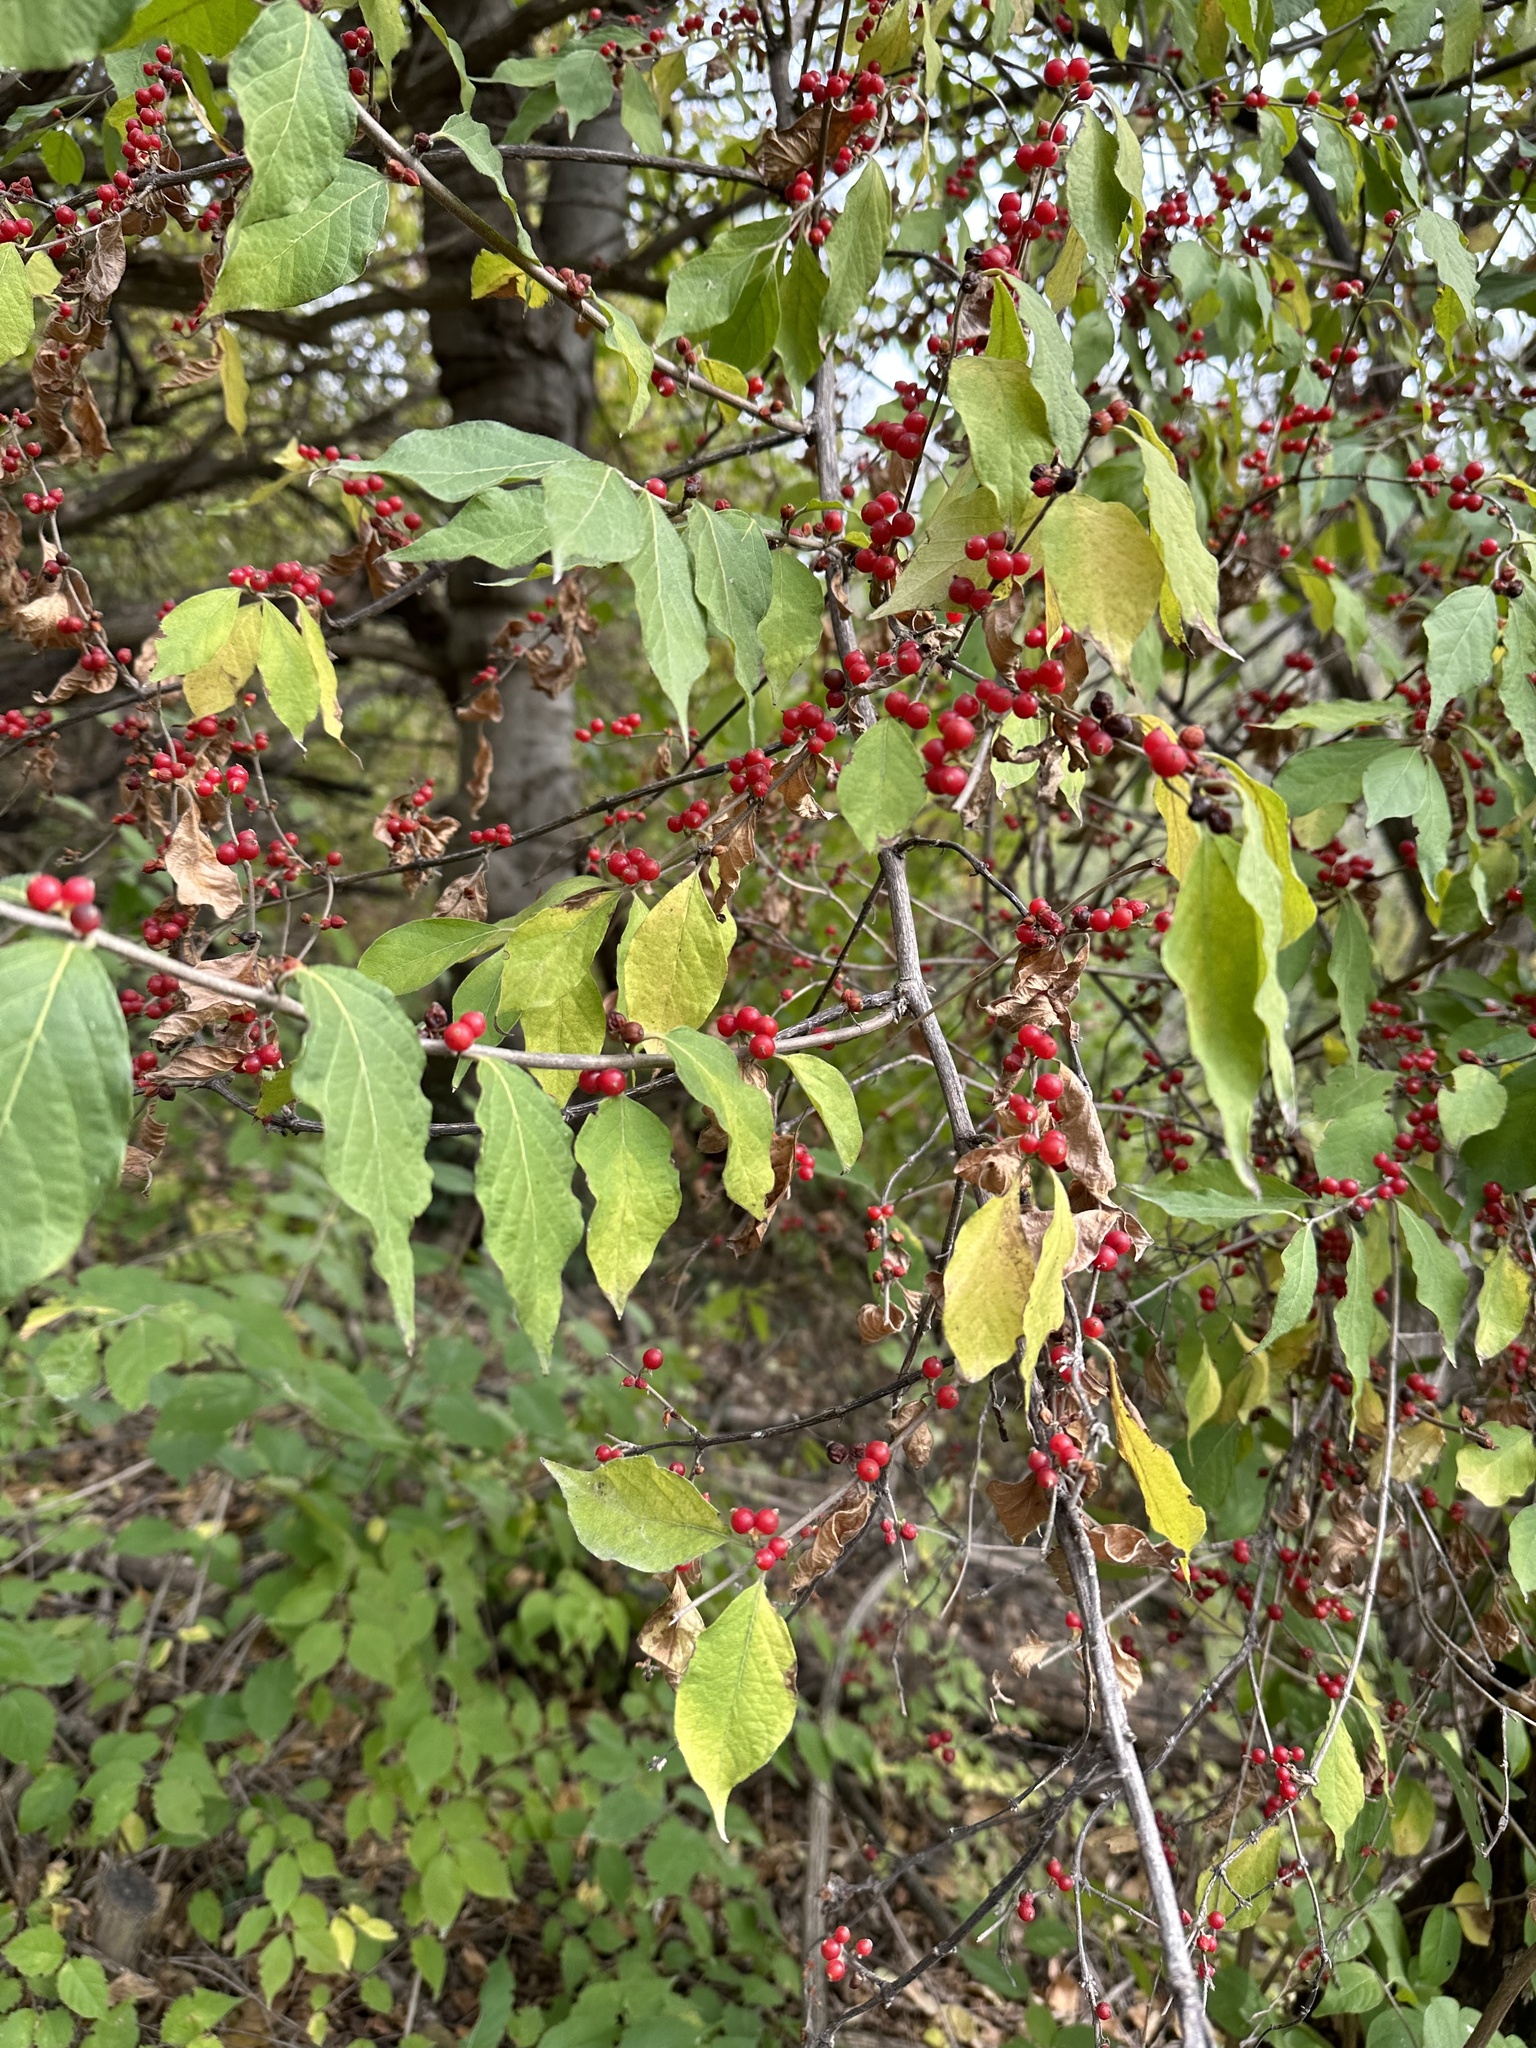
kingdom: Plantae
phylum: Tracheophyta
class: Magnoliopsida
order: Dipsacales
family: Caprifoliaceae
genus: Lonicera
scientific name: Lonicera maackii
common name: Amur honeysuckle
